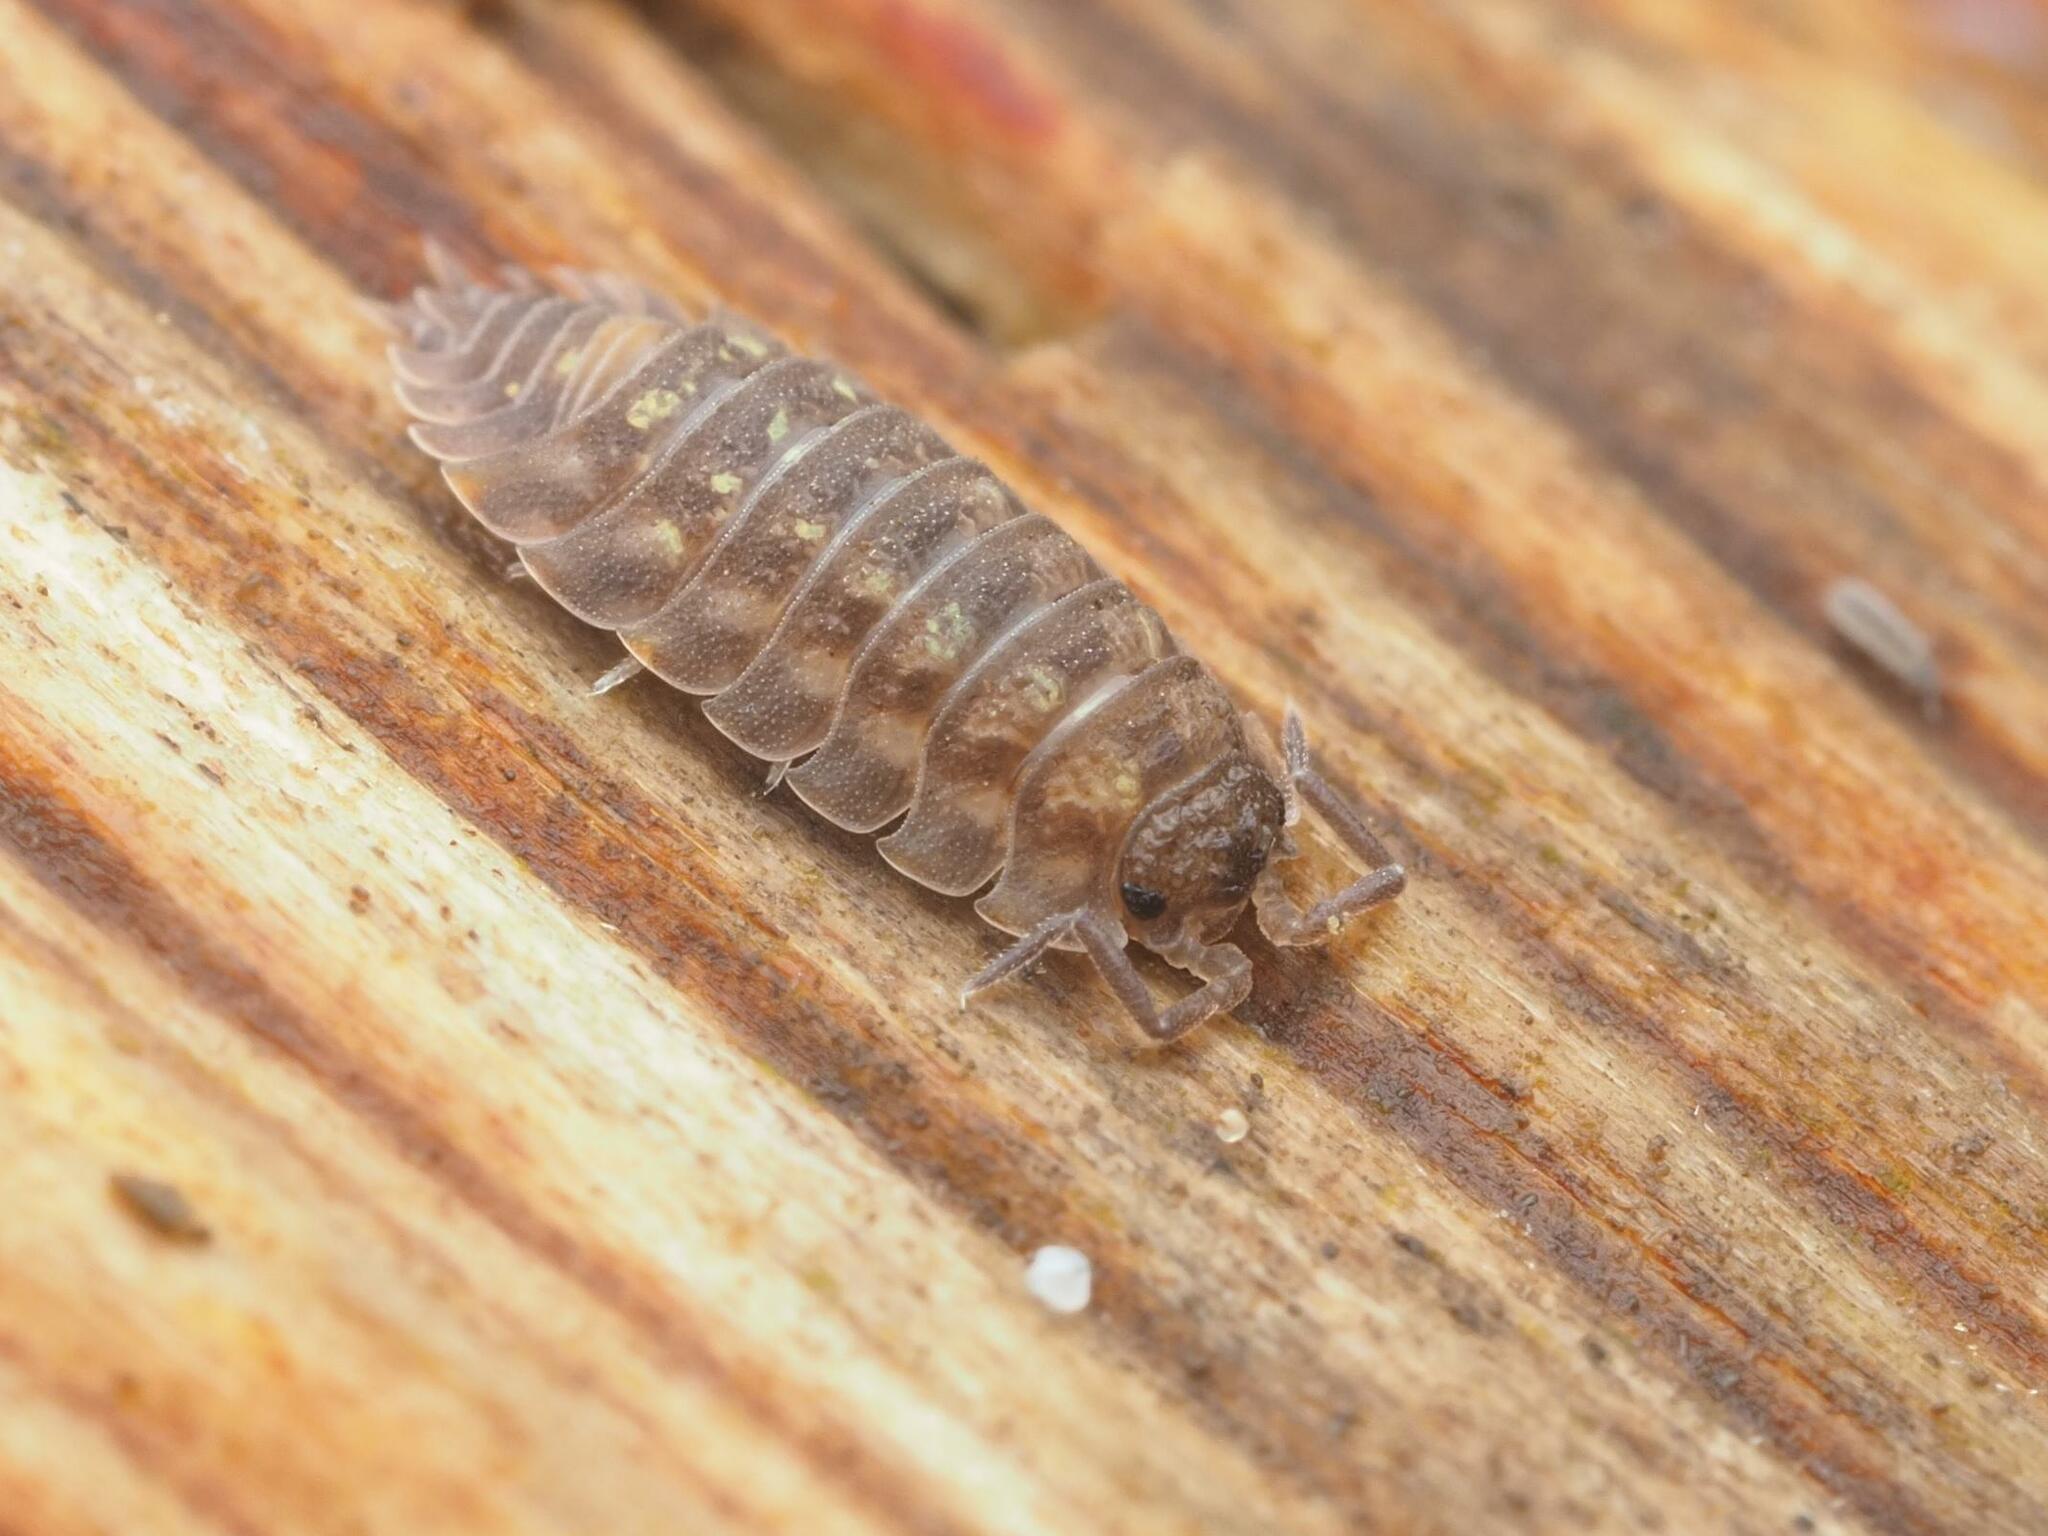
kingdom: Animalia
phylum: Arthropoda
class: Malacostraca
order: Isopoda
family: Oniscidae
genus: Oniscus
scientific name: Oniscus asellus
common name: Common shiny woodlouse
